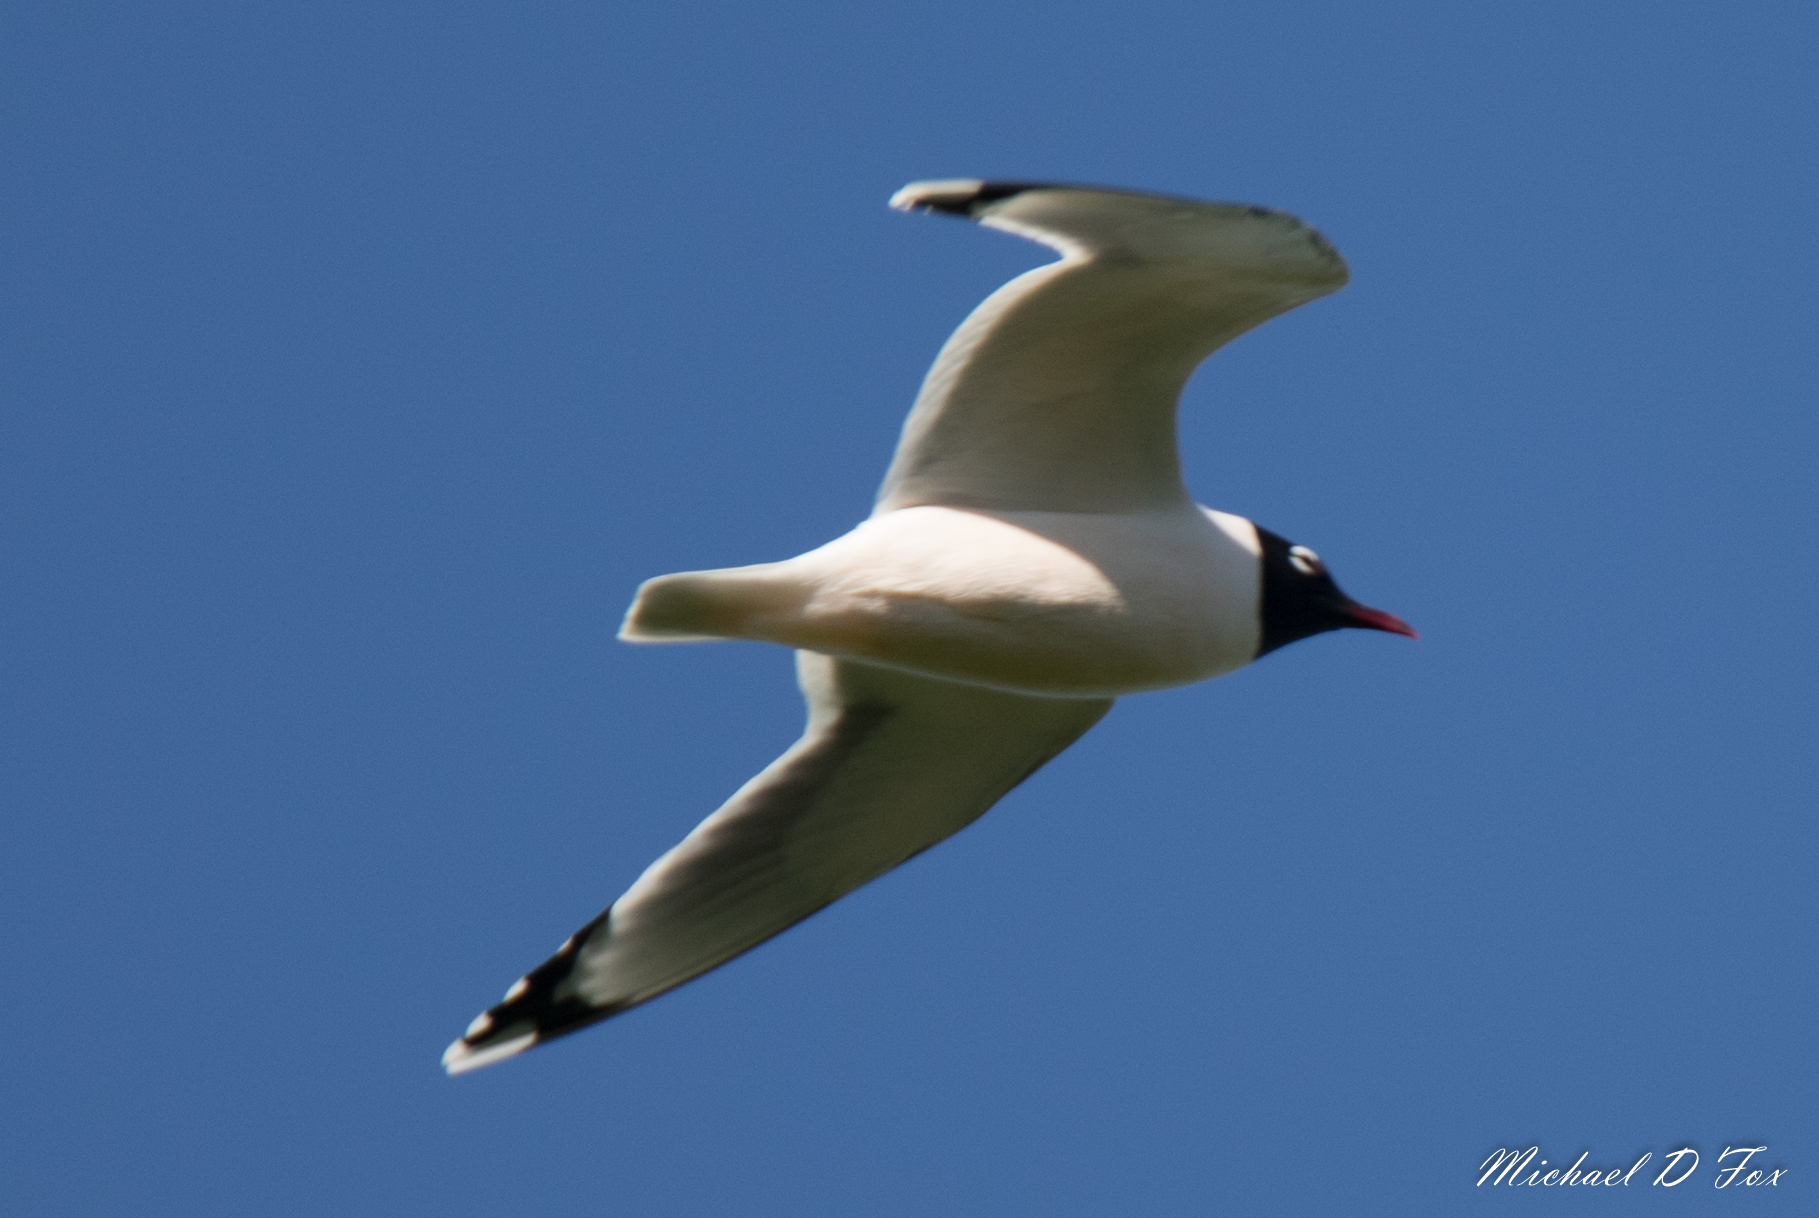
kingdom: Animalia
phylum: Chordata
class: Aves
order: Charadriiformes
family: Laridae
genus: Leucophaeus
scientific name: Leucophaeus pipixcan
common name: Franklin's gull
